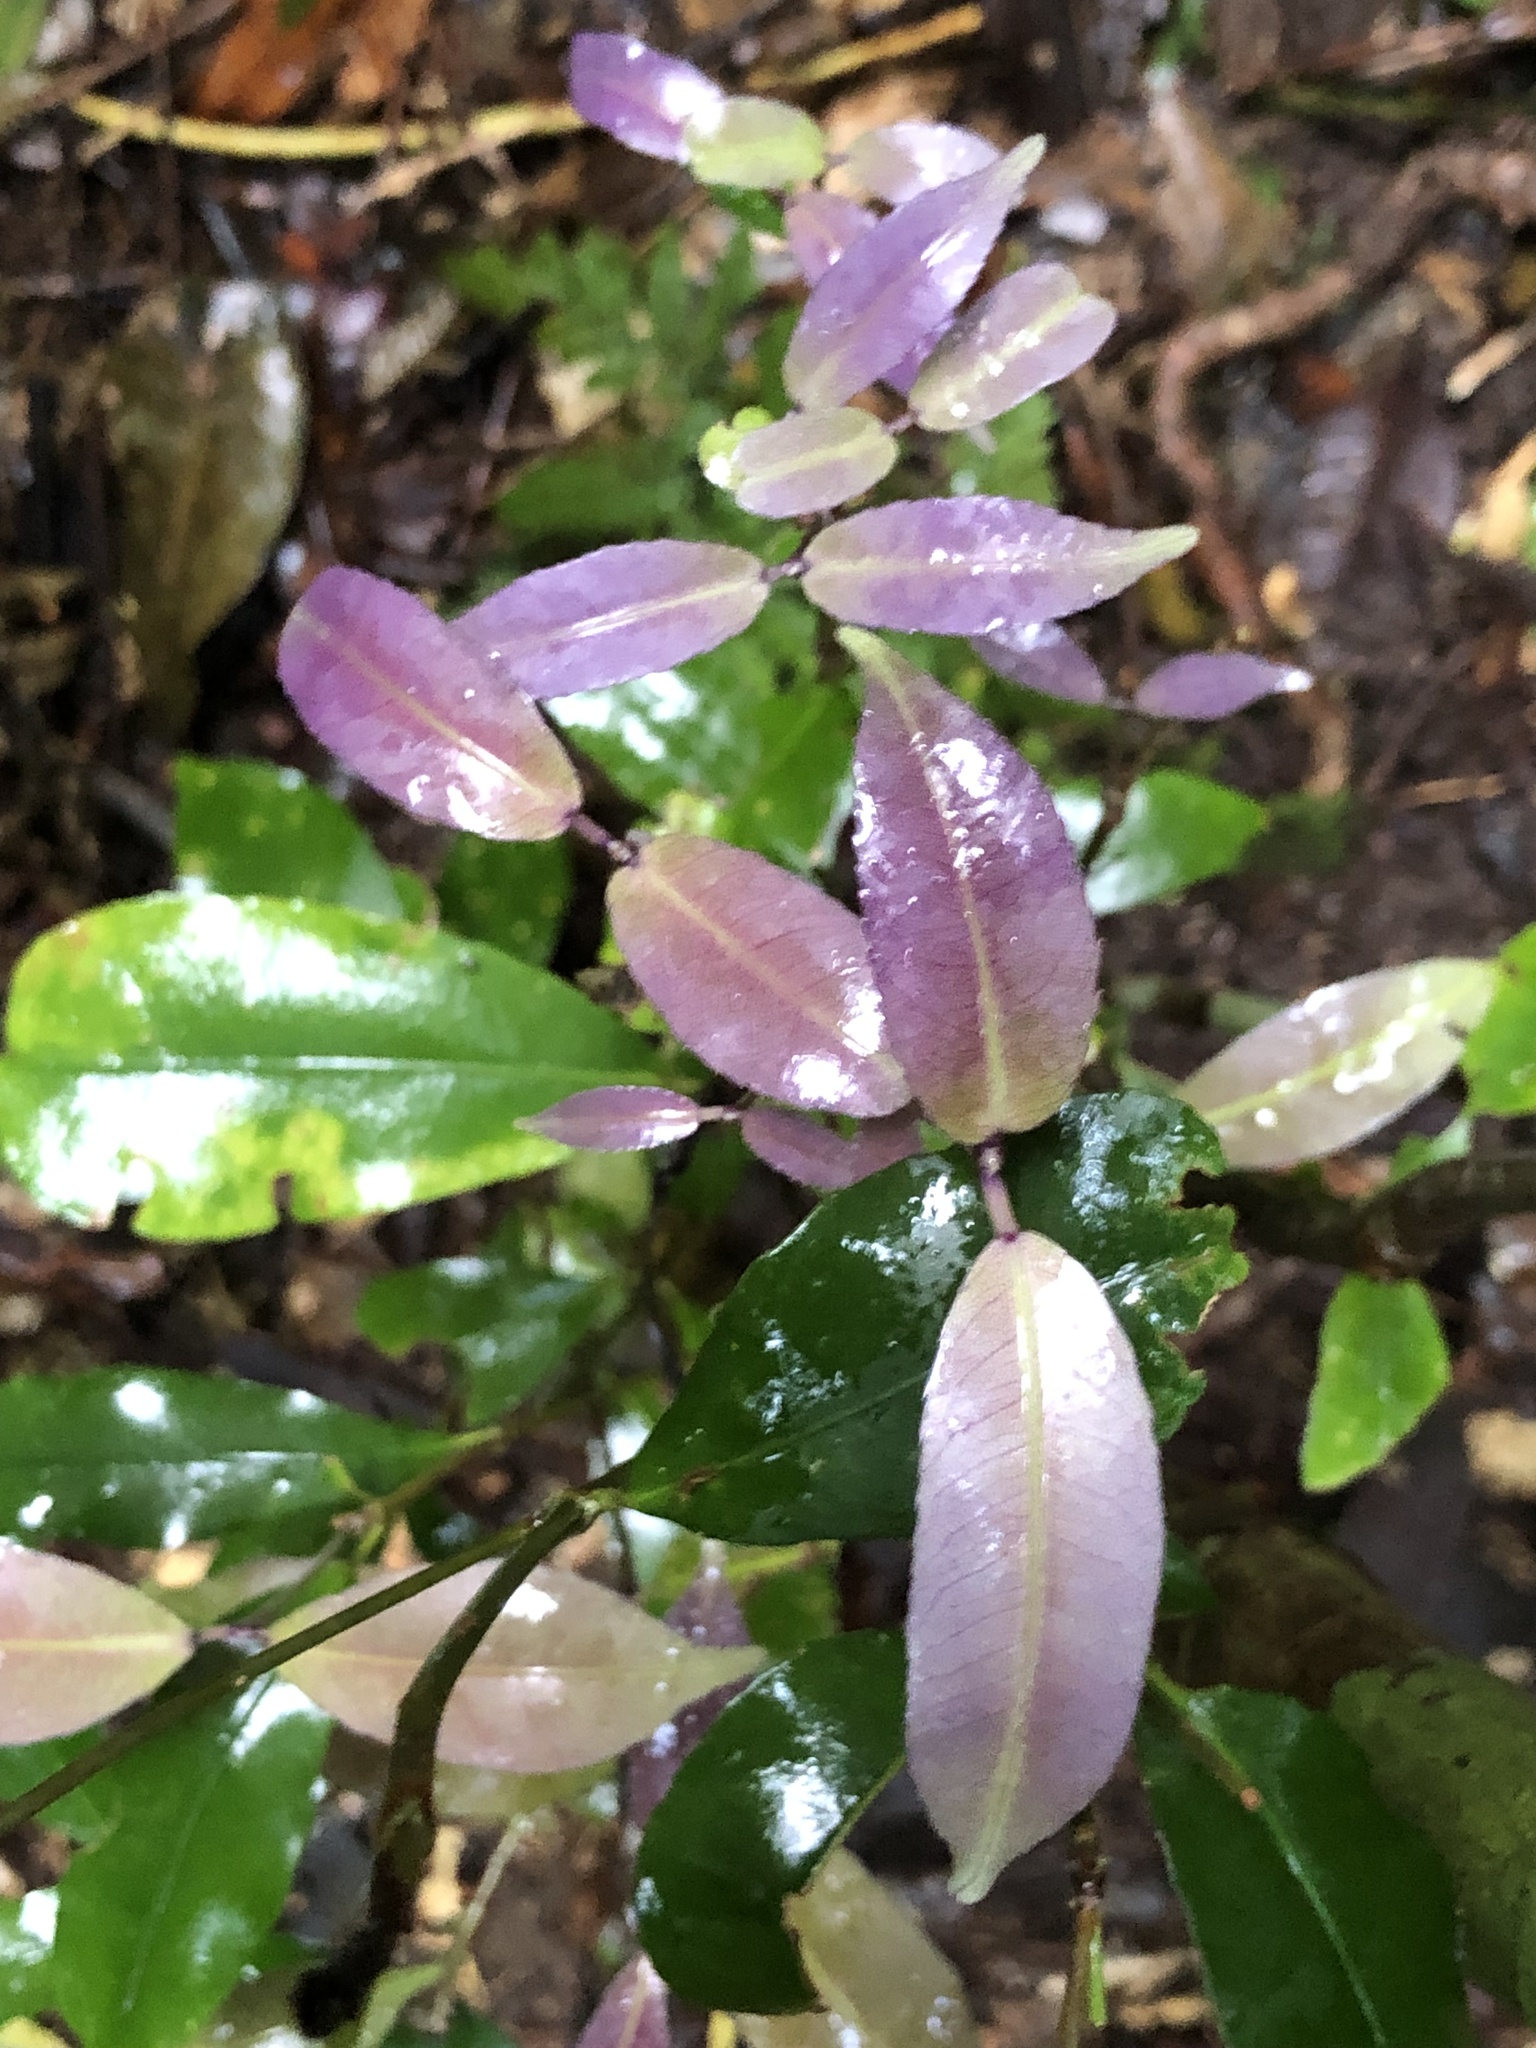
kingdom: Plantae
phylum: Tracheophyta
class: Magnoliopsida
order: Oxalidales
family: Cunoniaceae
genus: Ceratopetalum
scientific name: Ceratopetalum apetalum
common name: Scented satinwood
